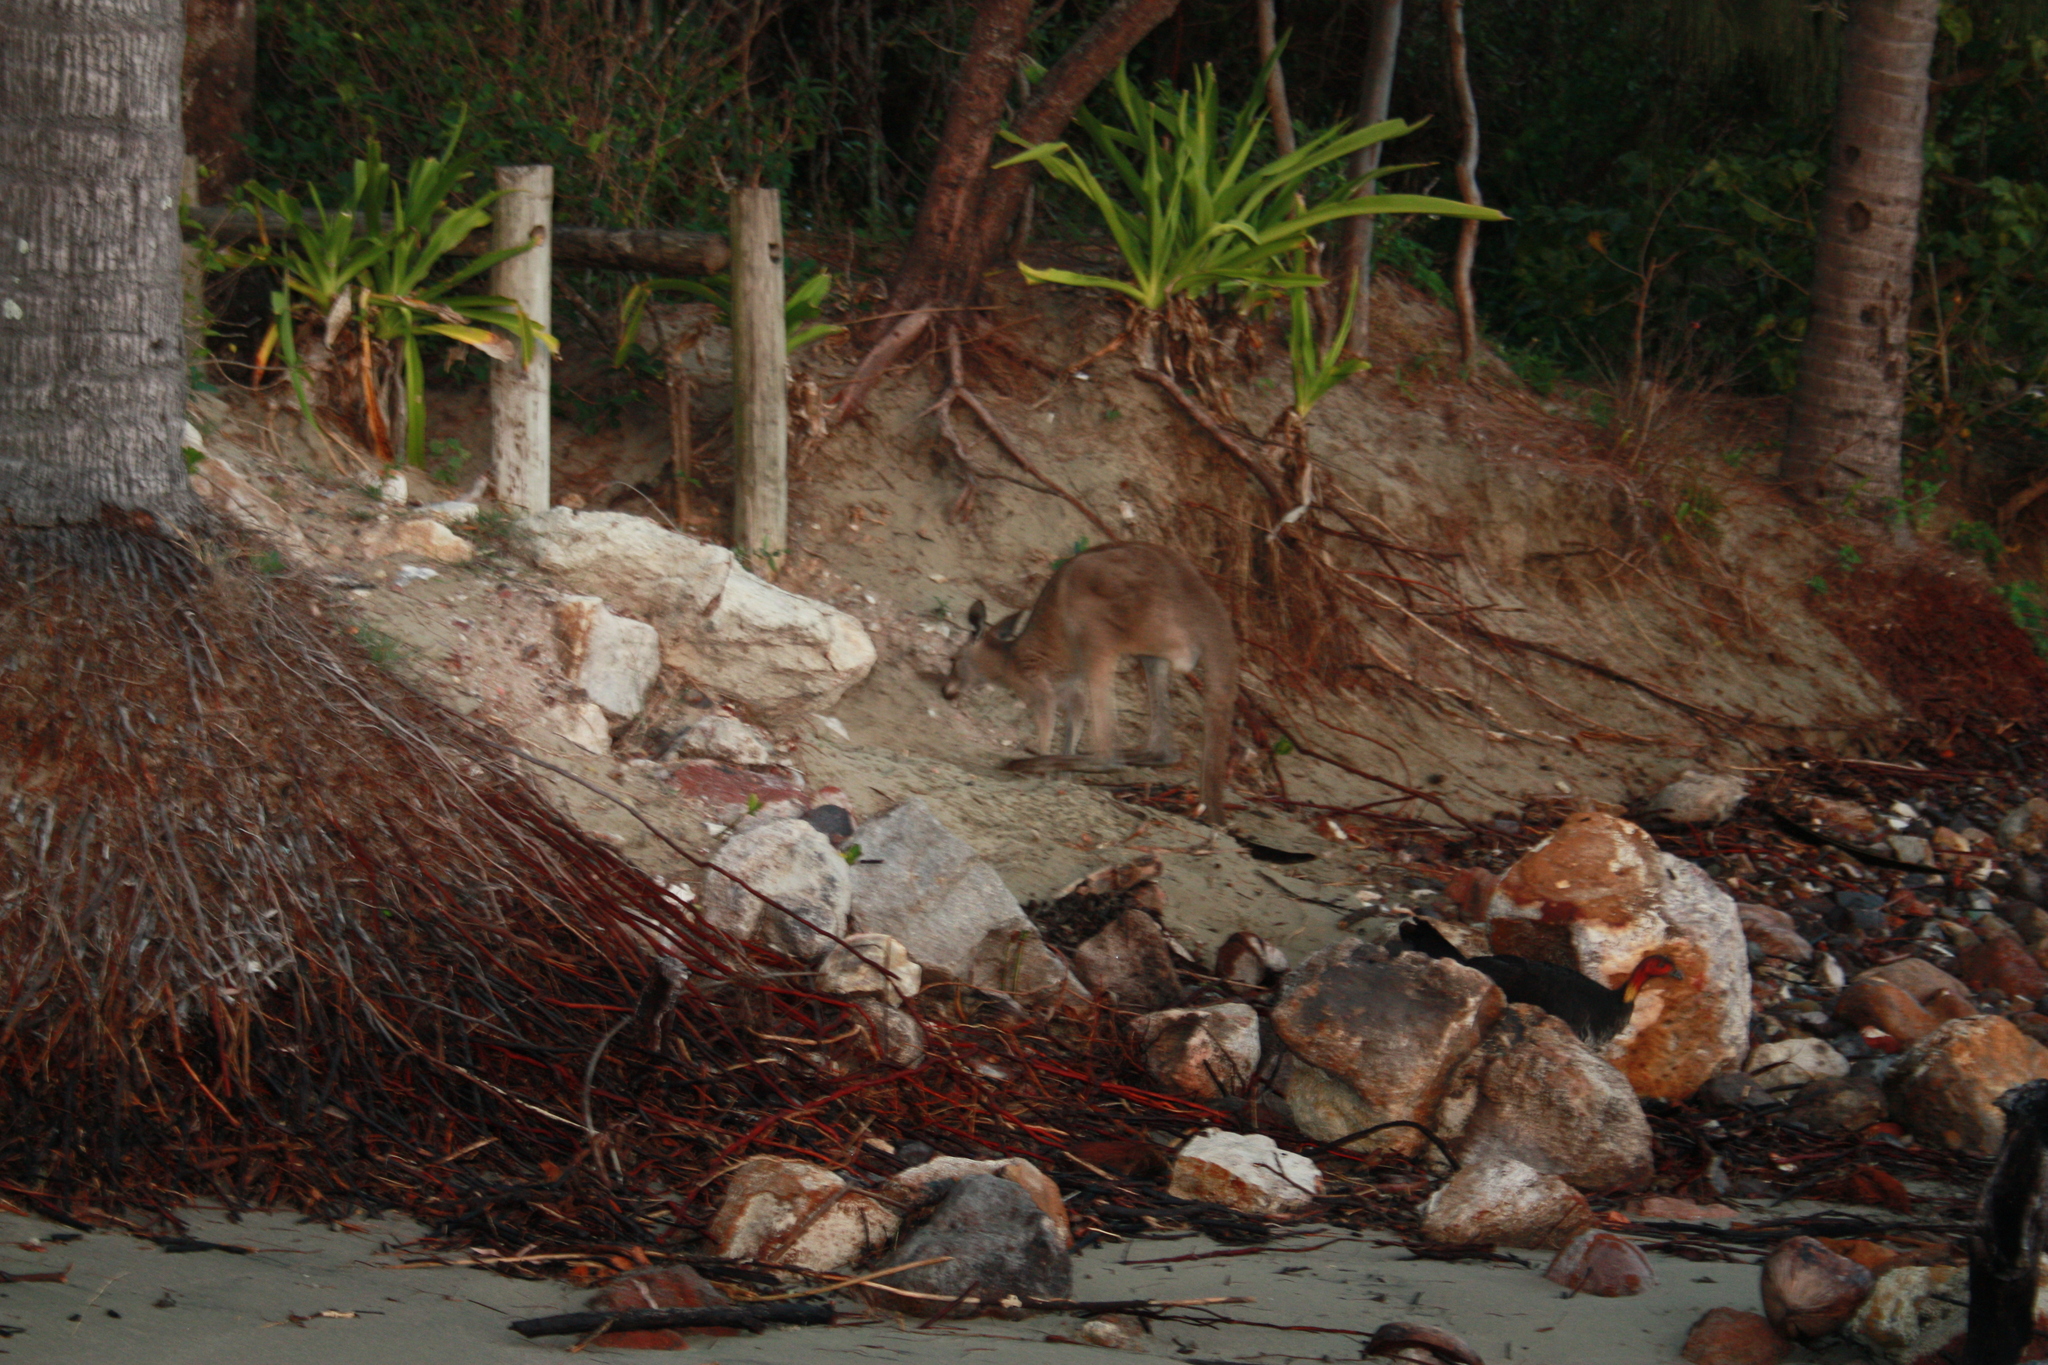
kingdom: Animalia
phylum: Chordata
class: Mammalia
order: Diprotodontia
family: Macropodidae
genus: Macropus
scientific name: Macropus giganteus
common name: Eastern grey kangaroo
